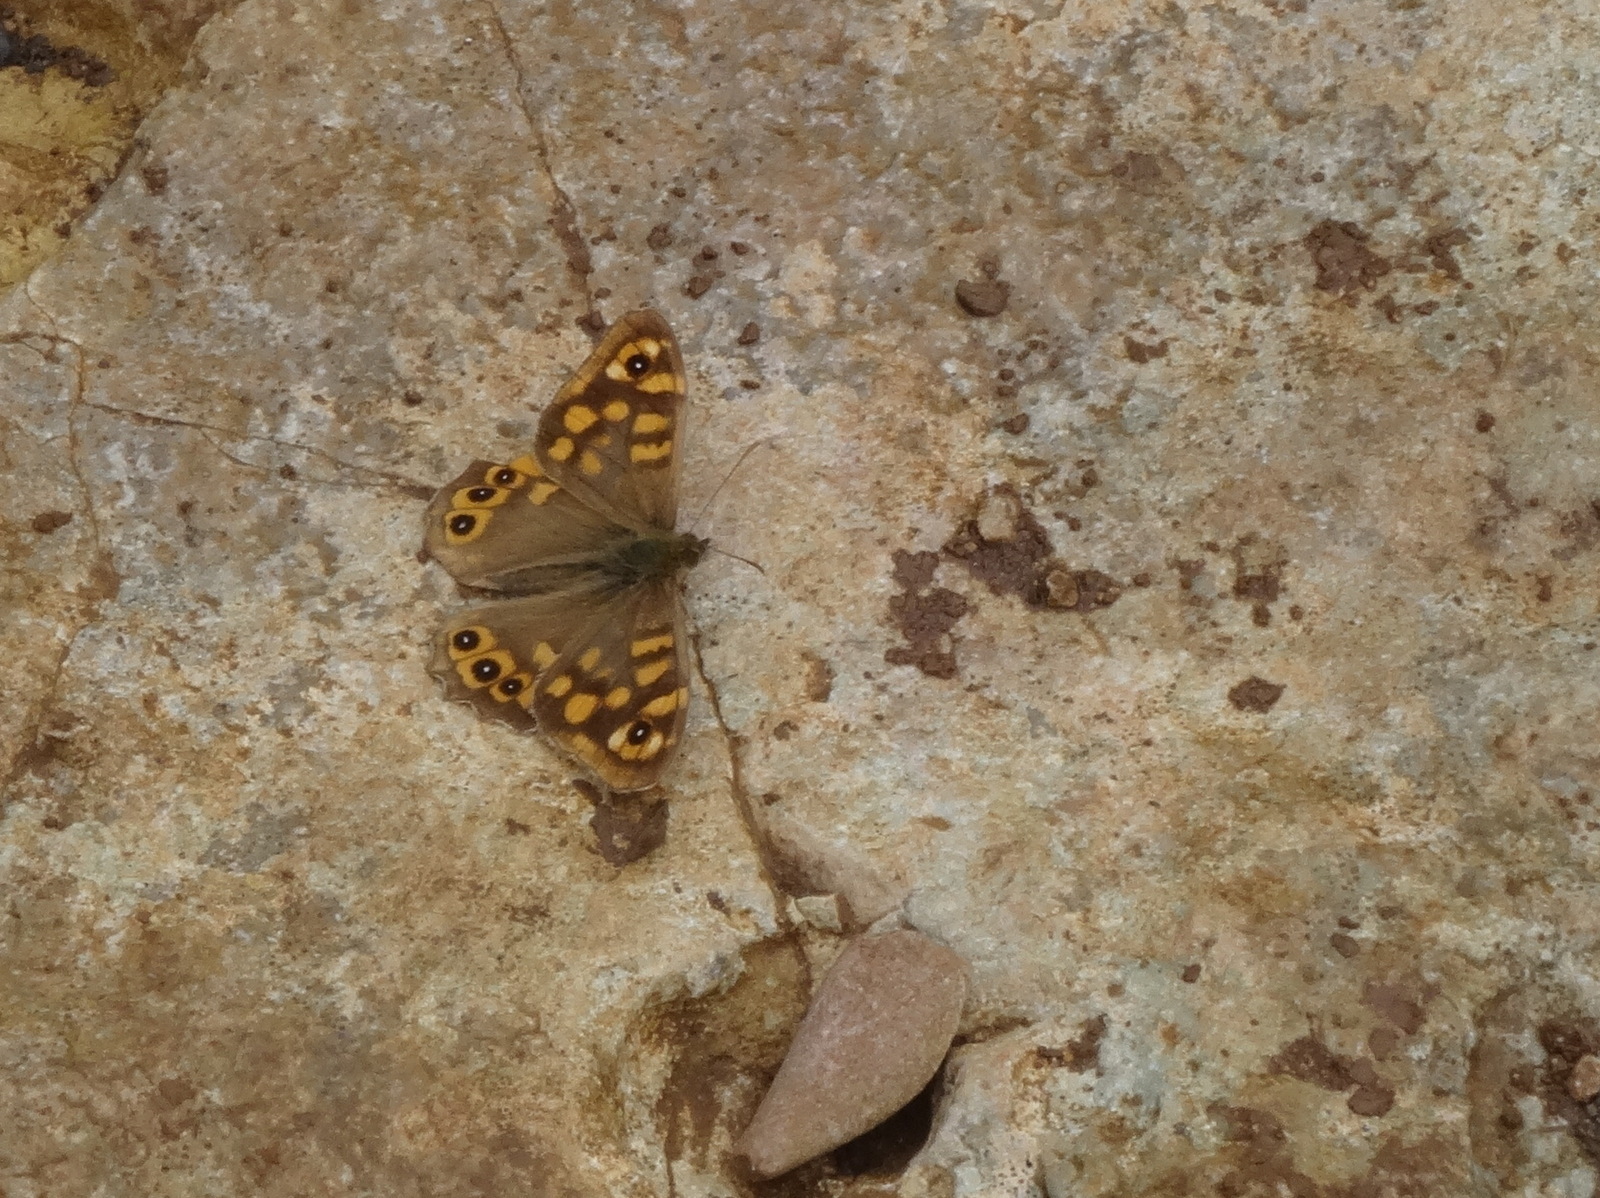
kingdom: Animalia
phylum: Arthropoda
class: Insecta
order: Lepidoptera
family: Nymphalidae
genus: Pararge
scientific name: Pararge aegeria
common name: Speckled wood
